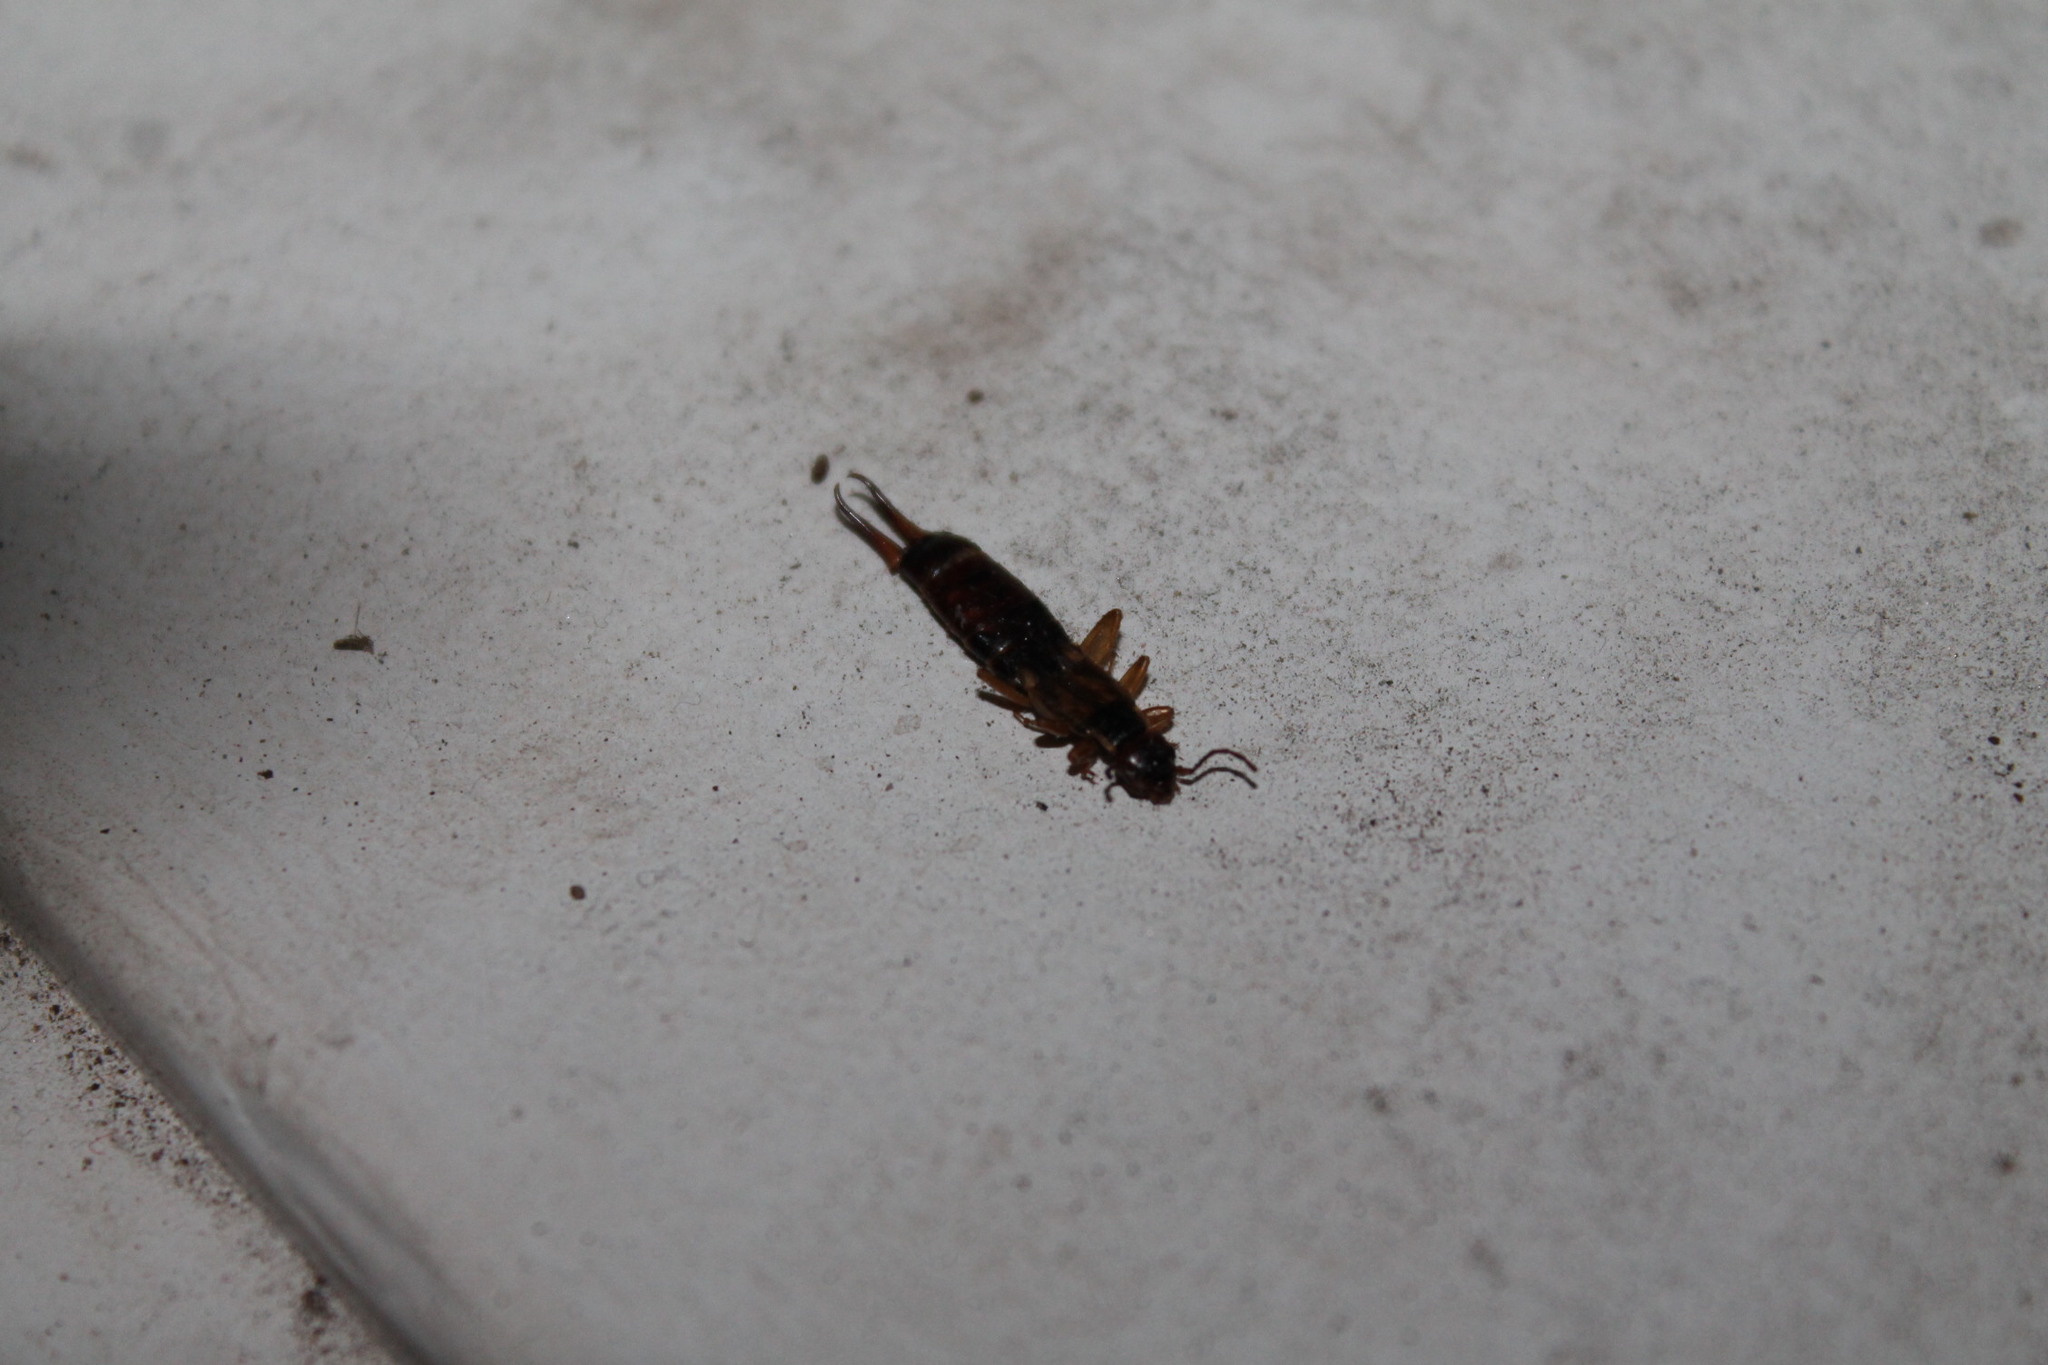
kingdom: Animalia
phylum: Arthropoda
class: Insecta
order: Dermaptera
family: Forficulidae
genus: Forficula
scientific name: Forficula
